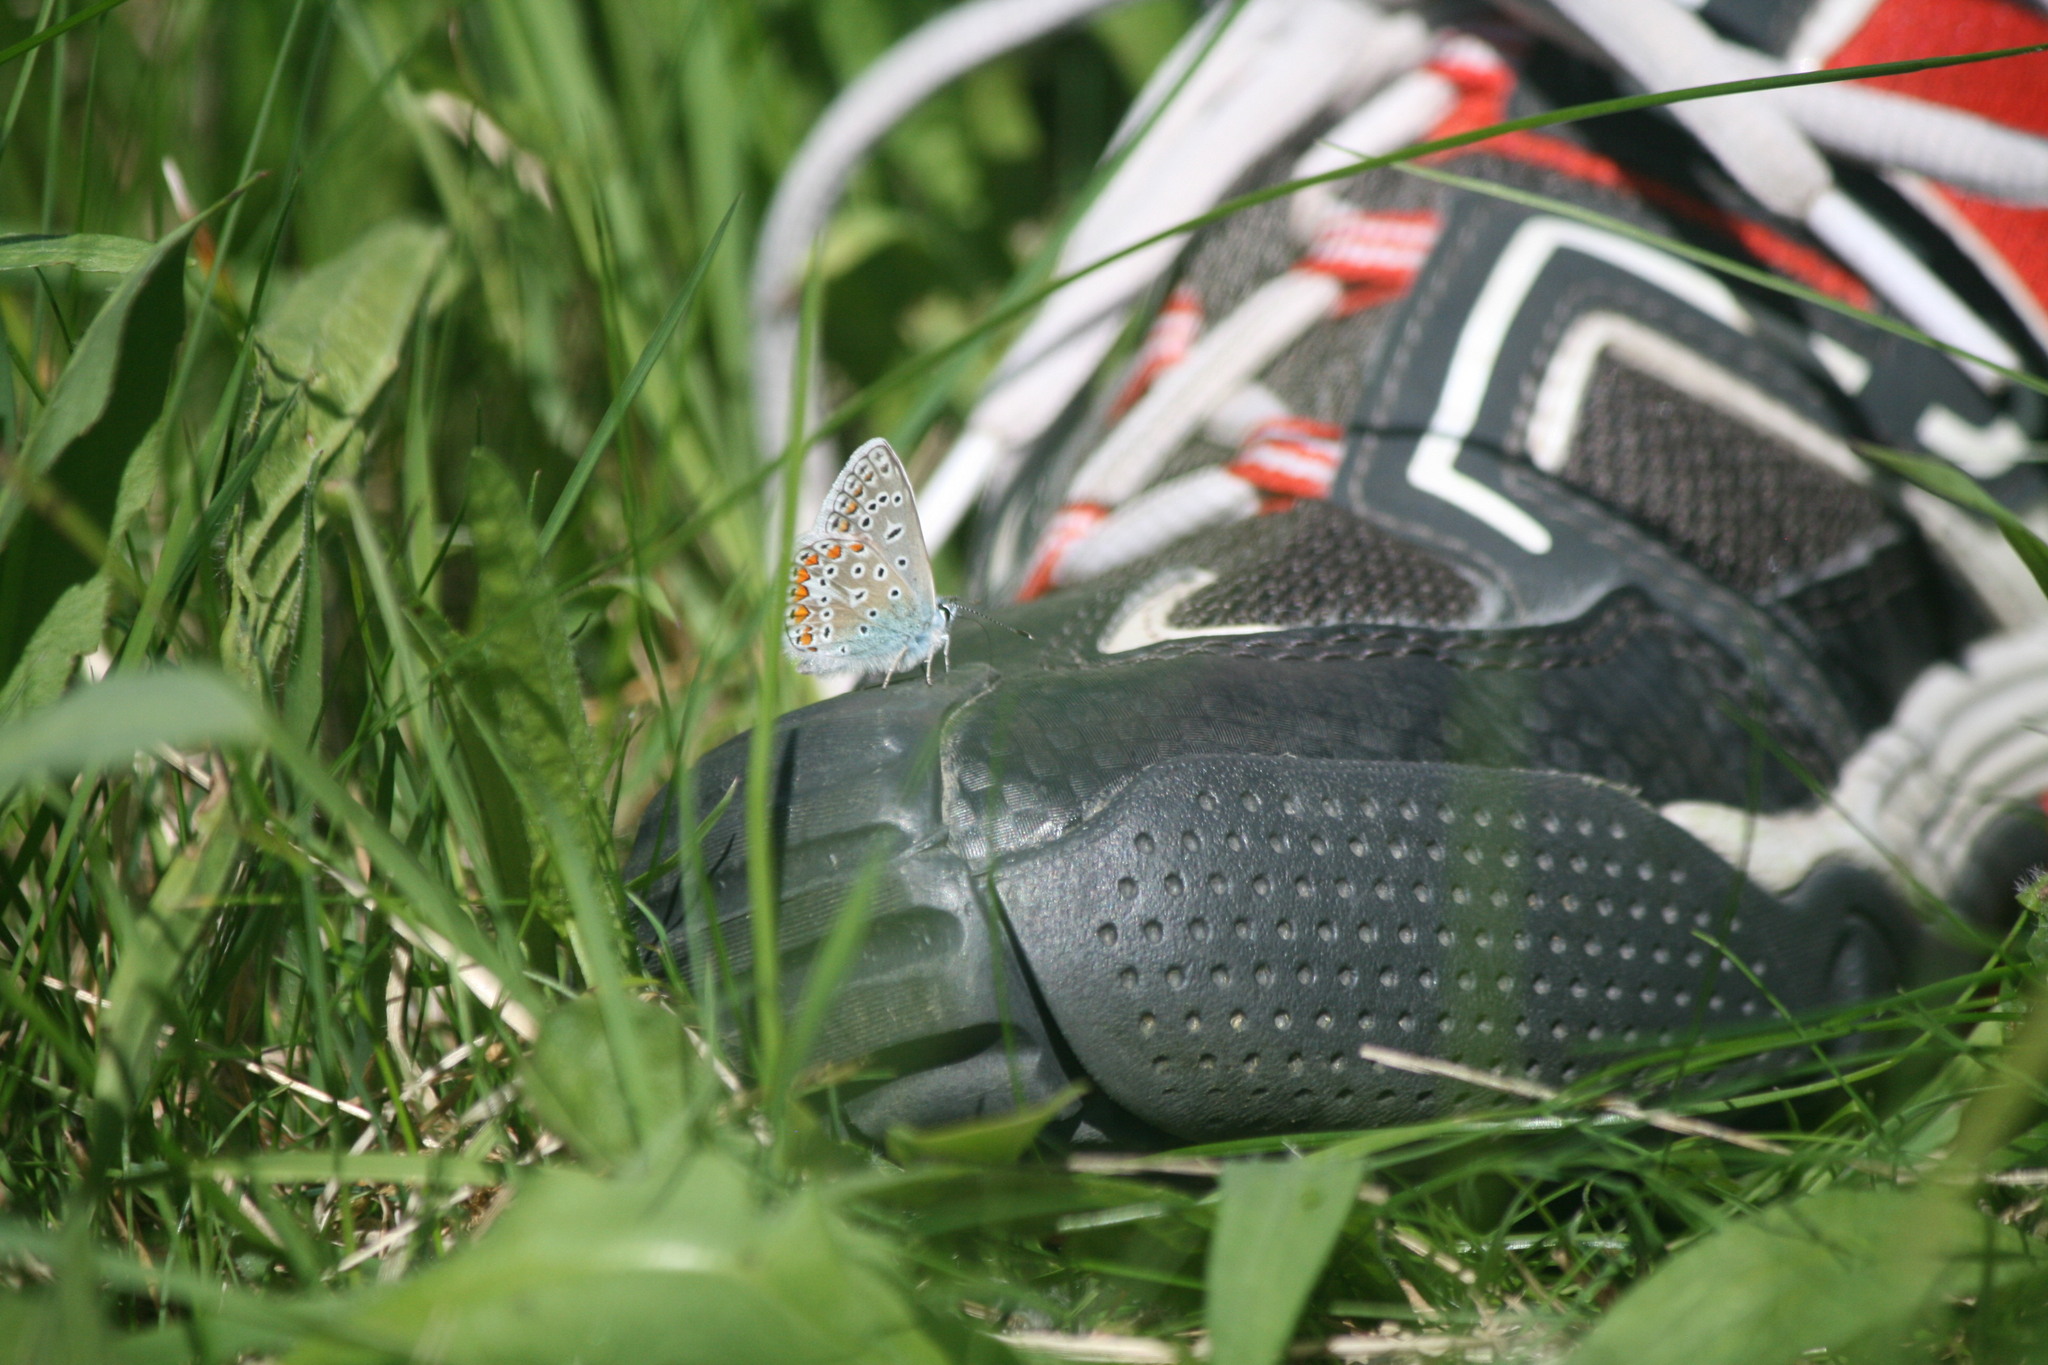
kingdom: Animalia
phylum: Arthropoda
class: Insecta
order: Lepidoptera
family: Lycaenidae
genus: Polyommatus
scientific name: Polyommatus icarus
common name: Common blue
